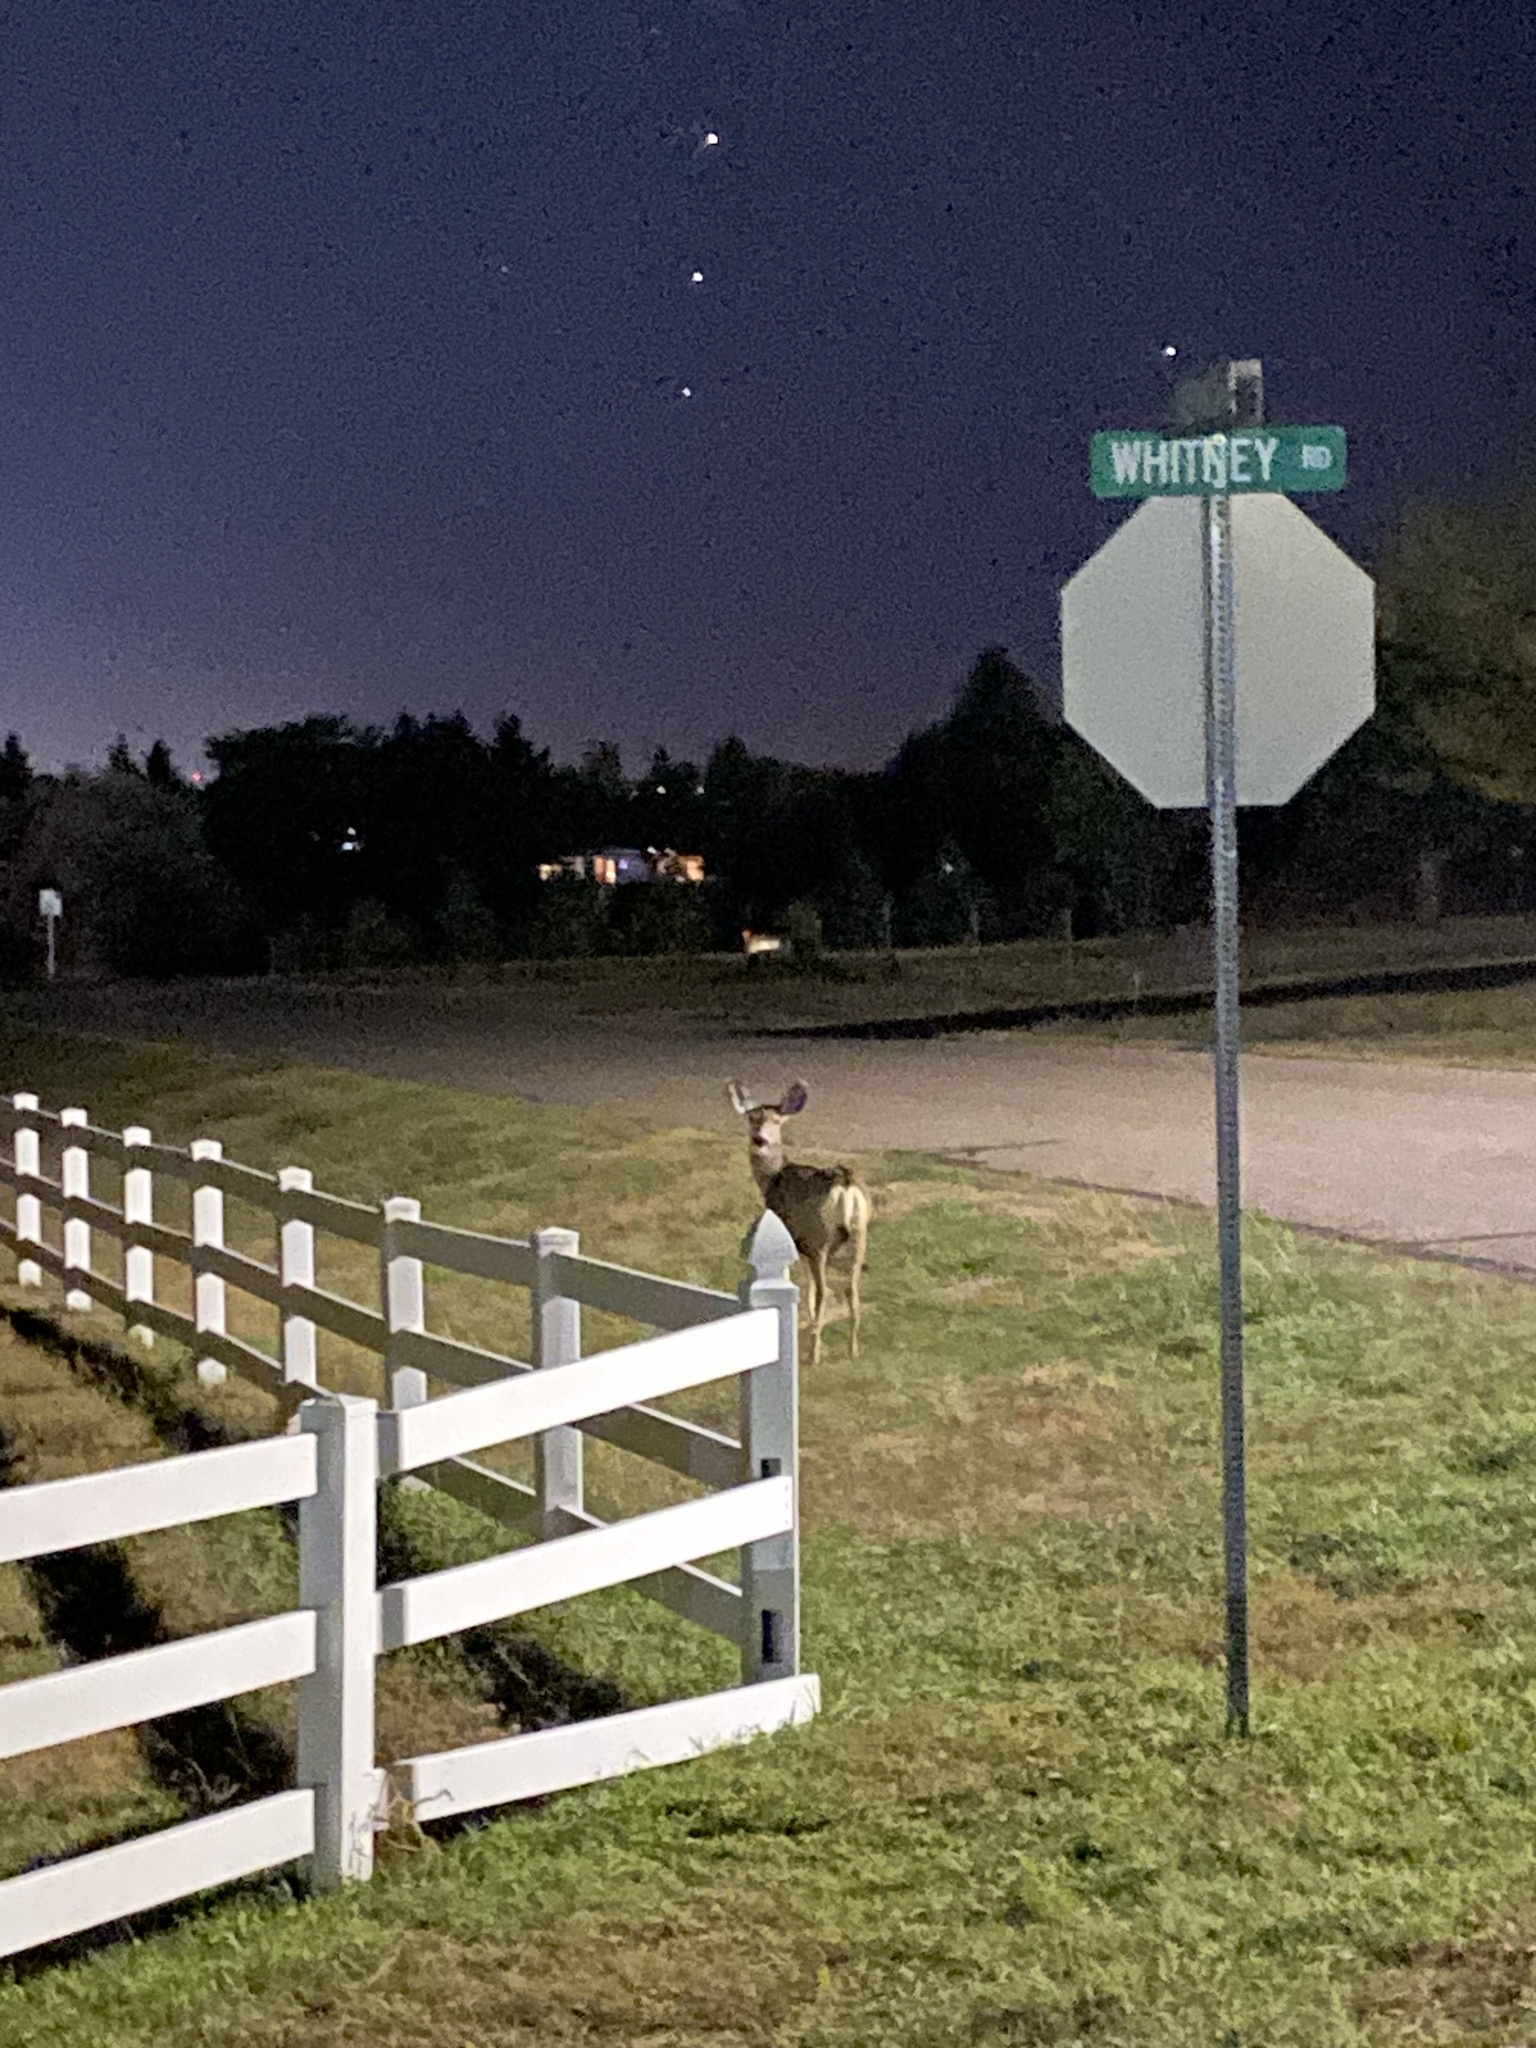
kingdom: Animalia
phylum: Chordata
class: Mammalia
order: Artiodactyla
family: Cervidae
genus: Odocoileus
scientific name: Odocoileus hemionus
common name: Mule deer
